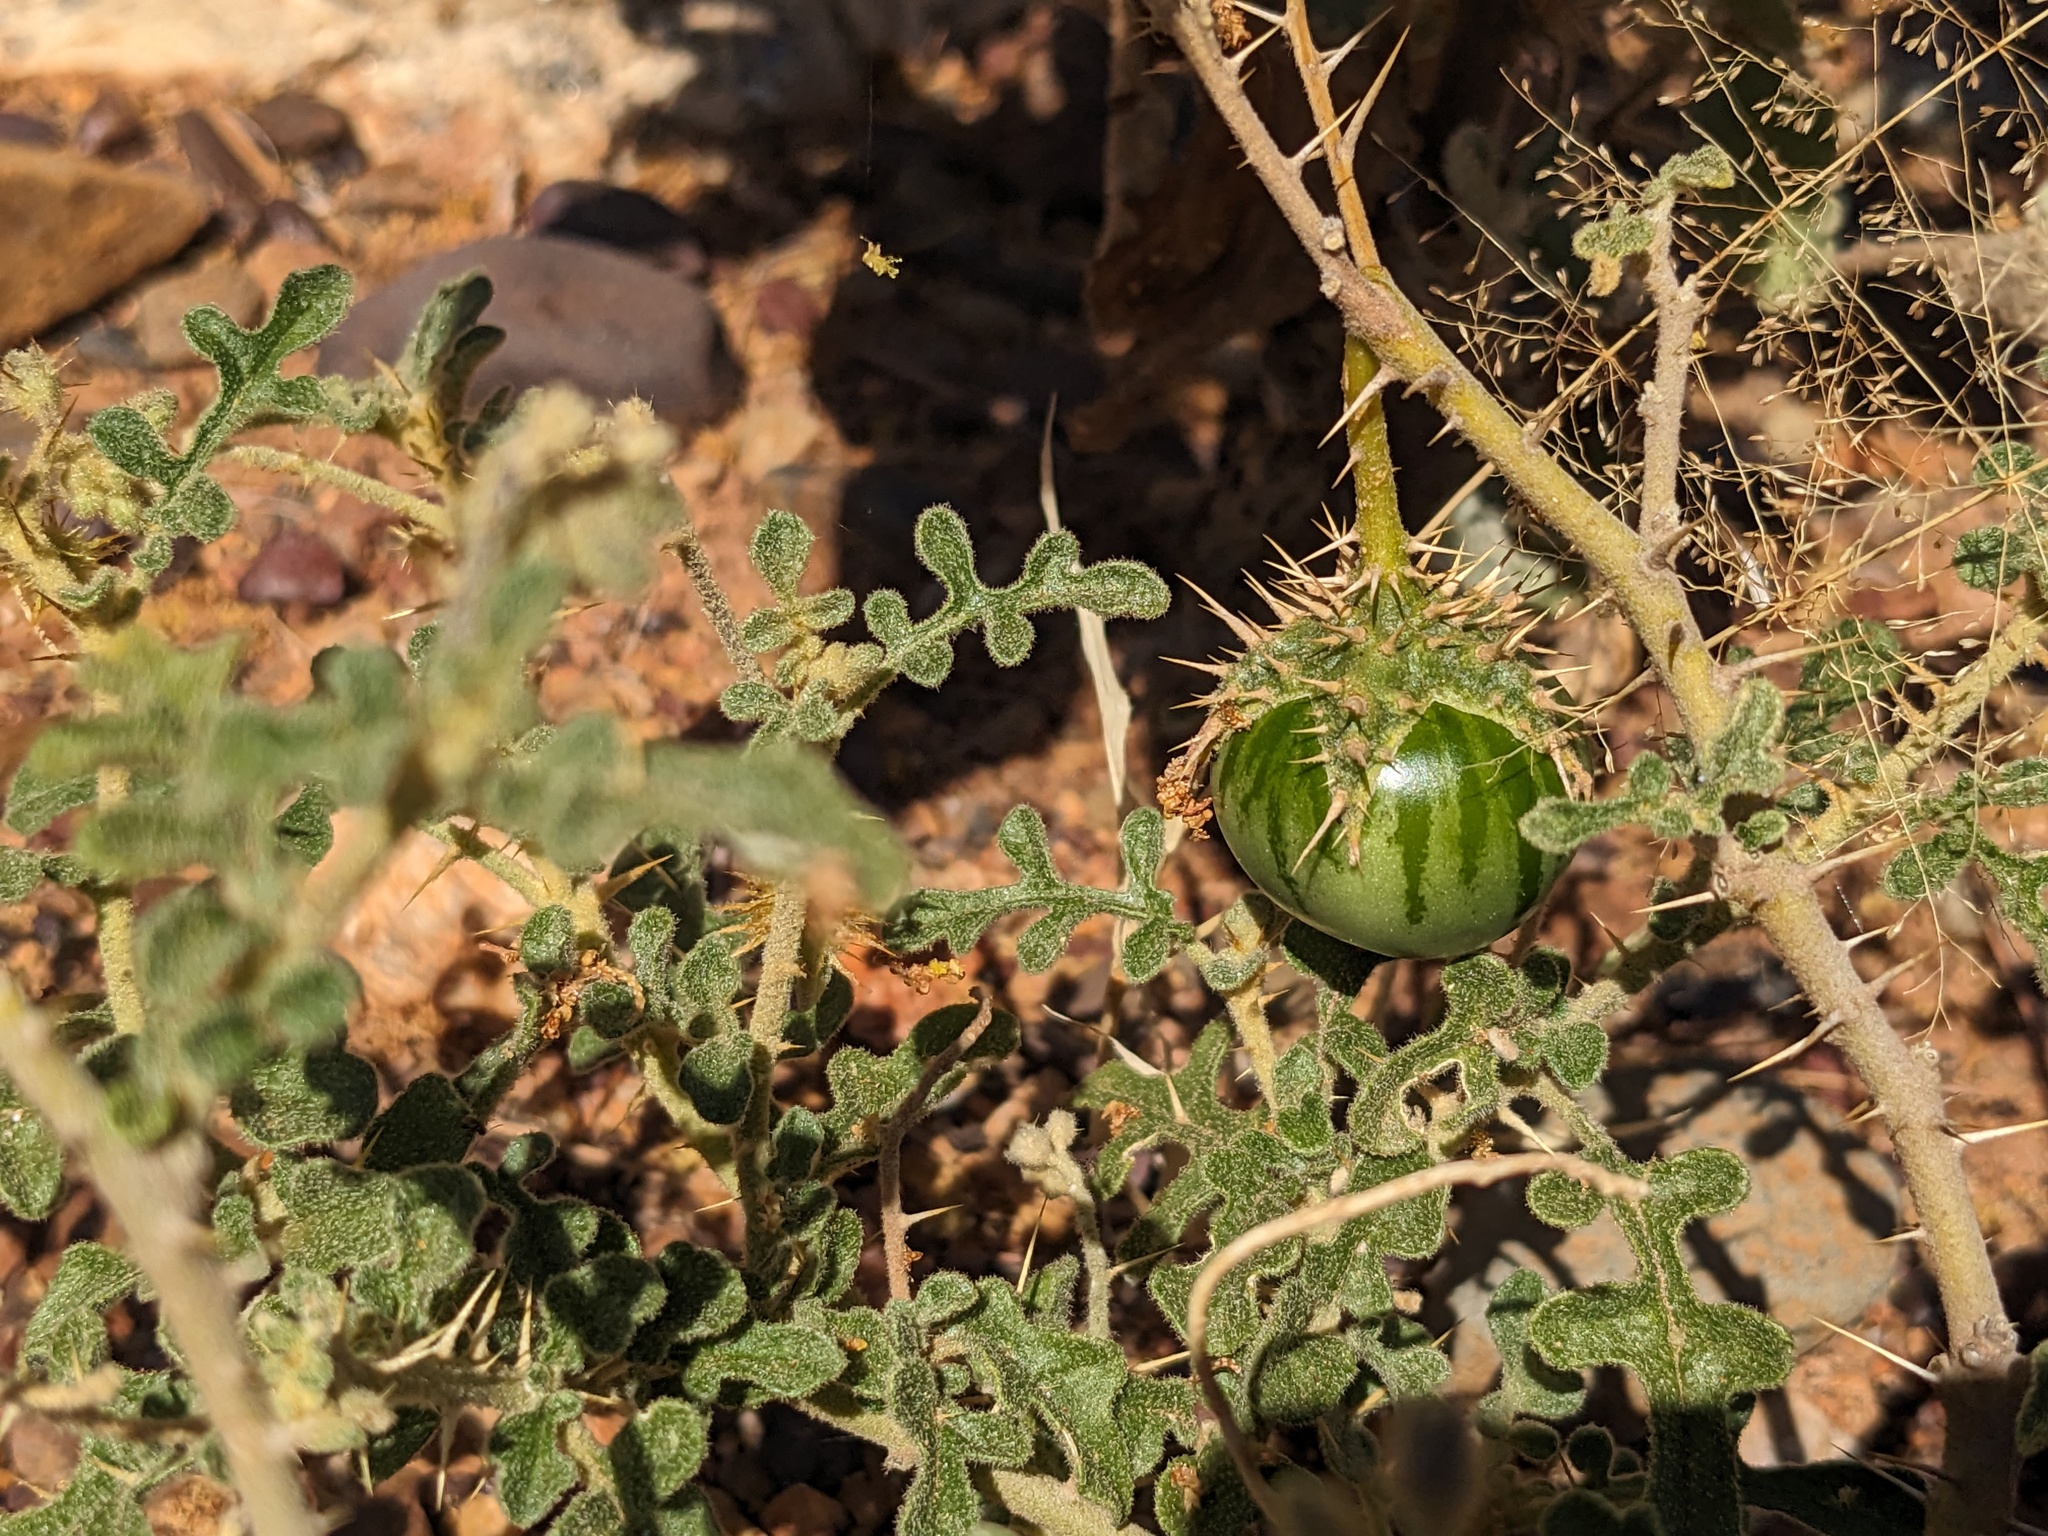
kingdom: Plantae
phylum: Tracheophyta
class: Magnoliopsida
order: Solanales
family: Solanaceae
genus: Solanum
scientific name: Solanum diversiflorum
